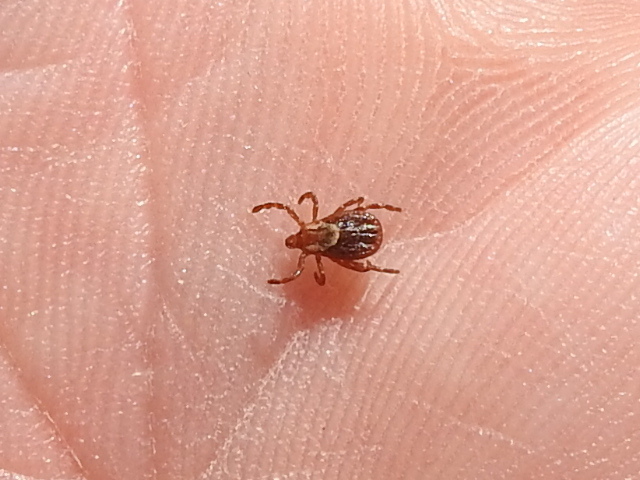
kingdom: Animalia
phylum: Arthropoda
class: Arachnida
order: Ixodida
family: Ixodidae
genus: Dermacentor
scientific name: Dermacentor variabilis
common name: American dog tick
